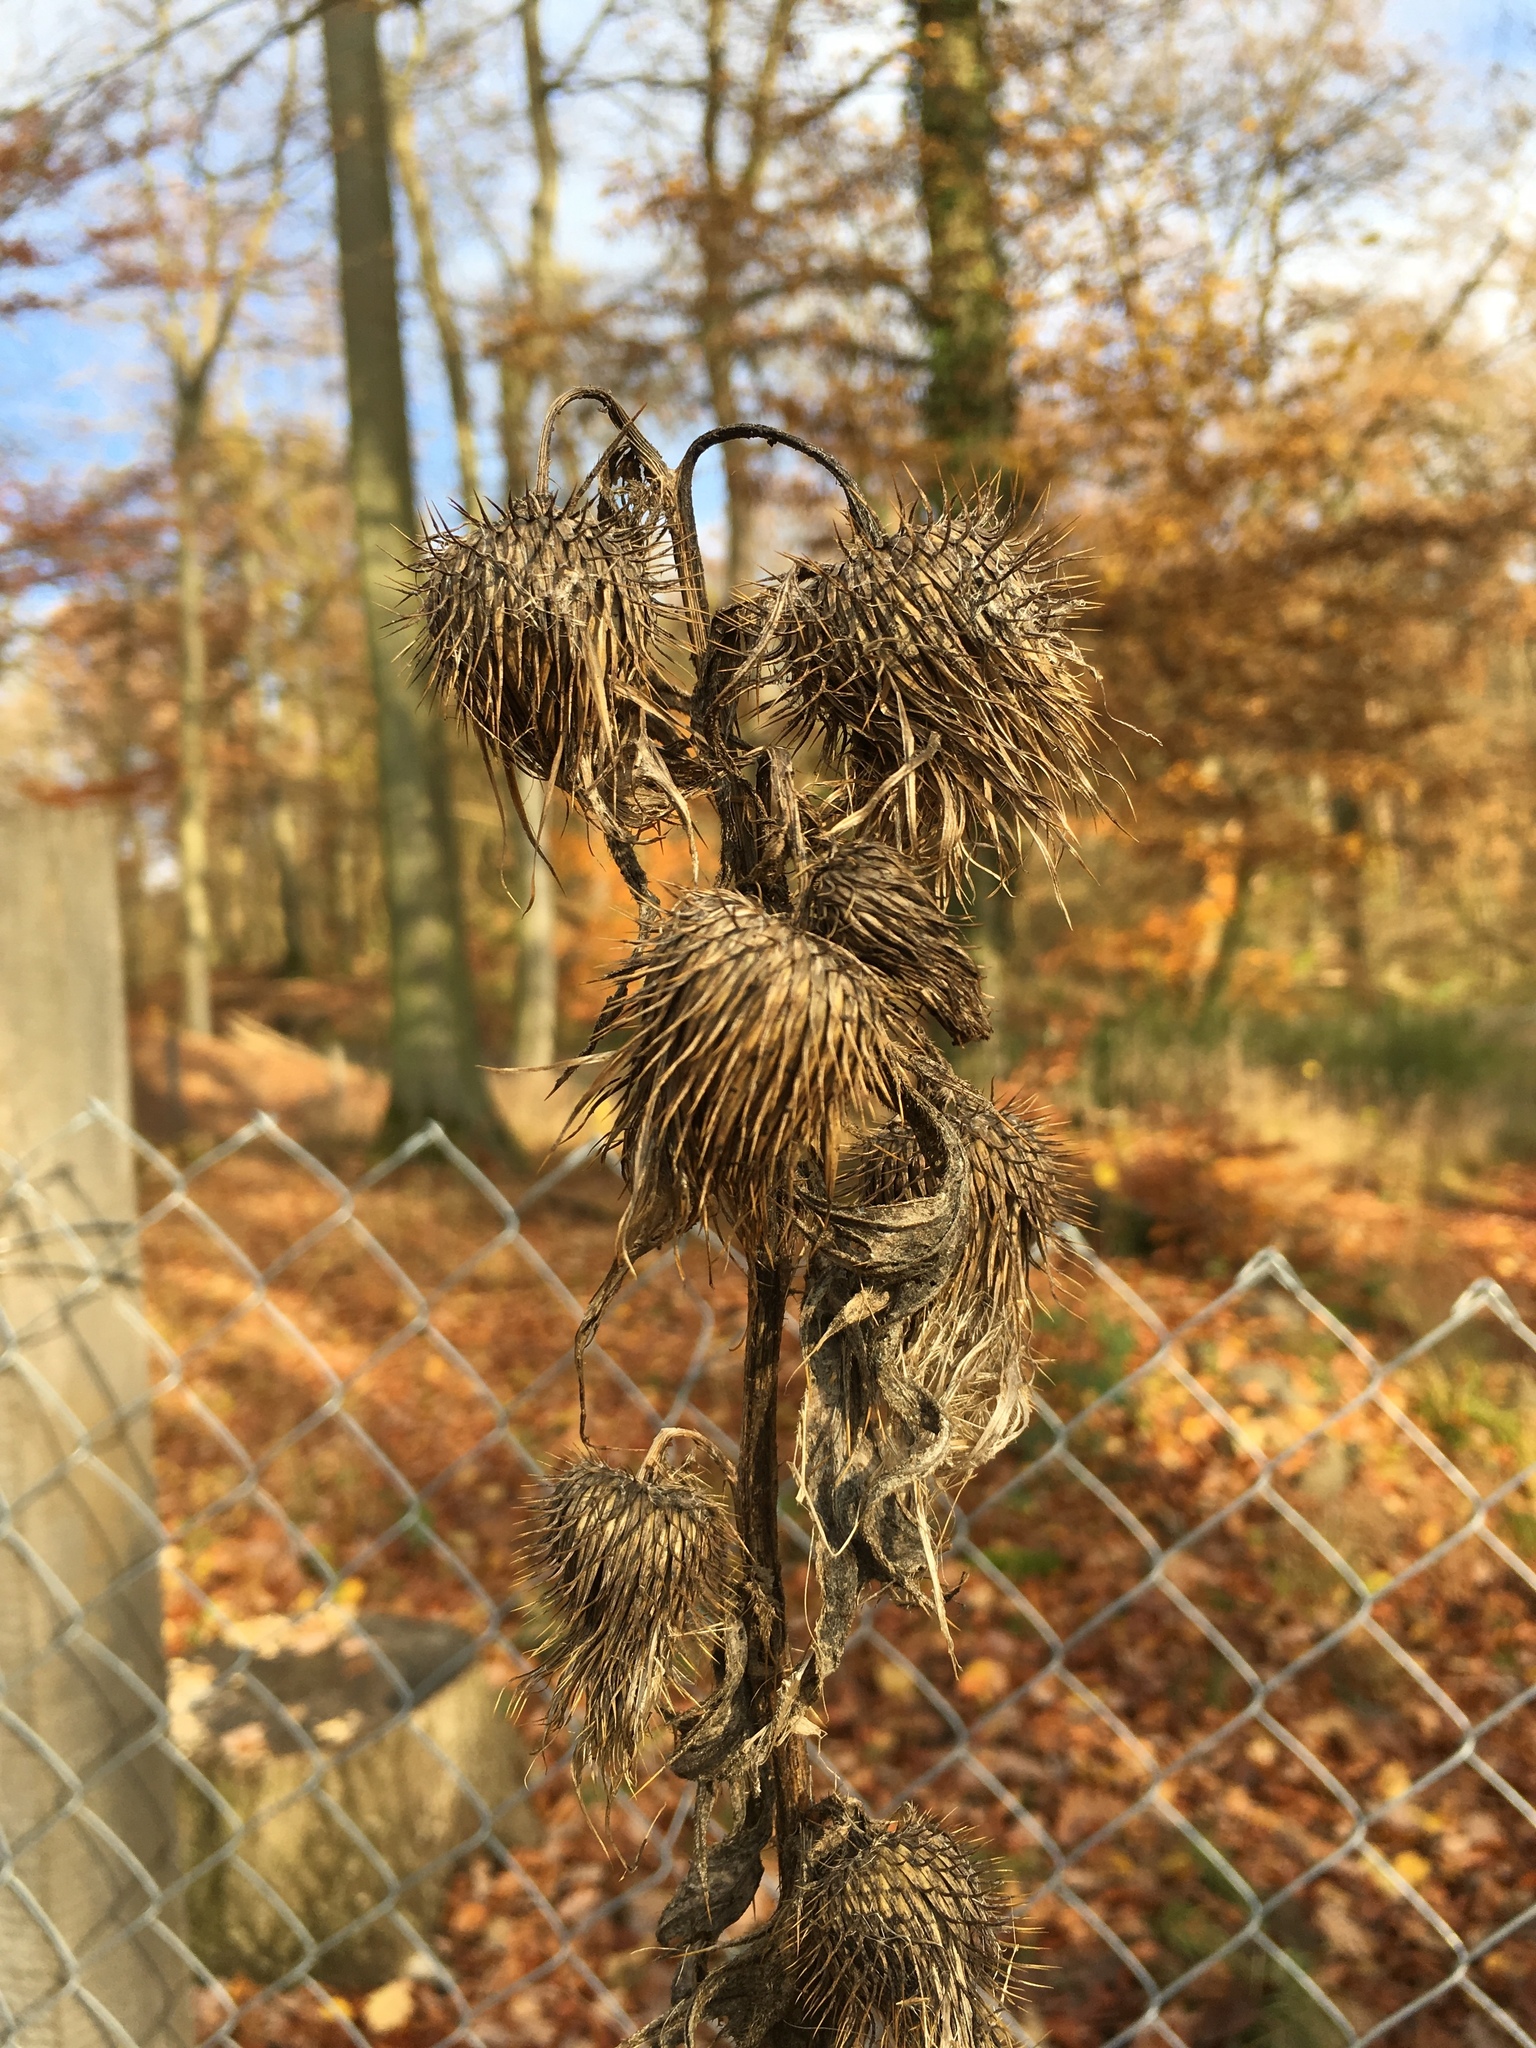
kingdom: Plantae
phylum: Tracheophyta
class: Magnoliopsida
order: Asterales
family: Asteraceae
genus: Cirsium
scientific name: Cirsium vulgare
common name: Bull thistle
